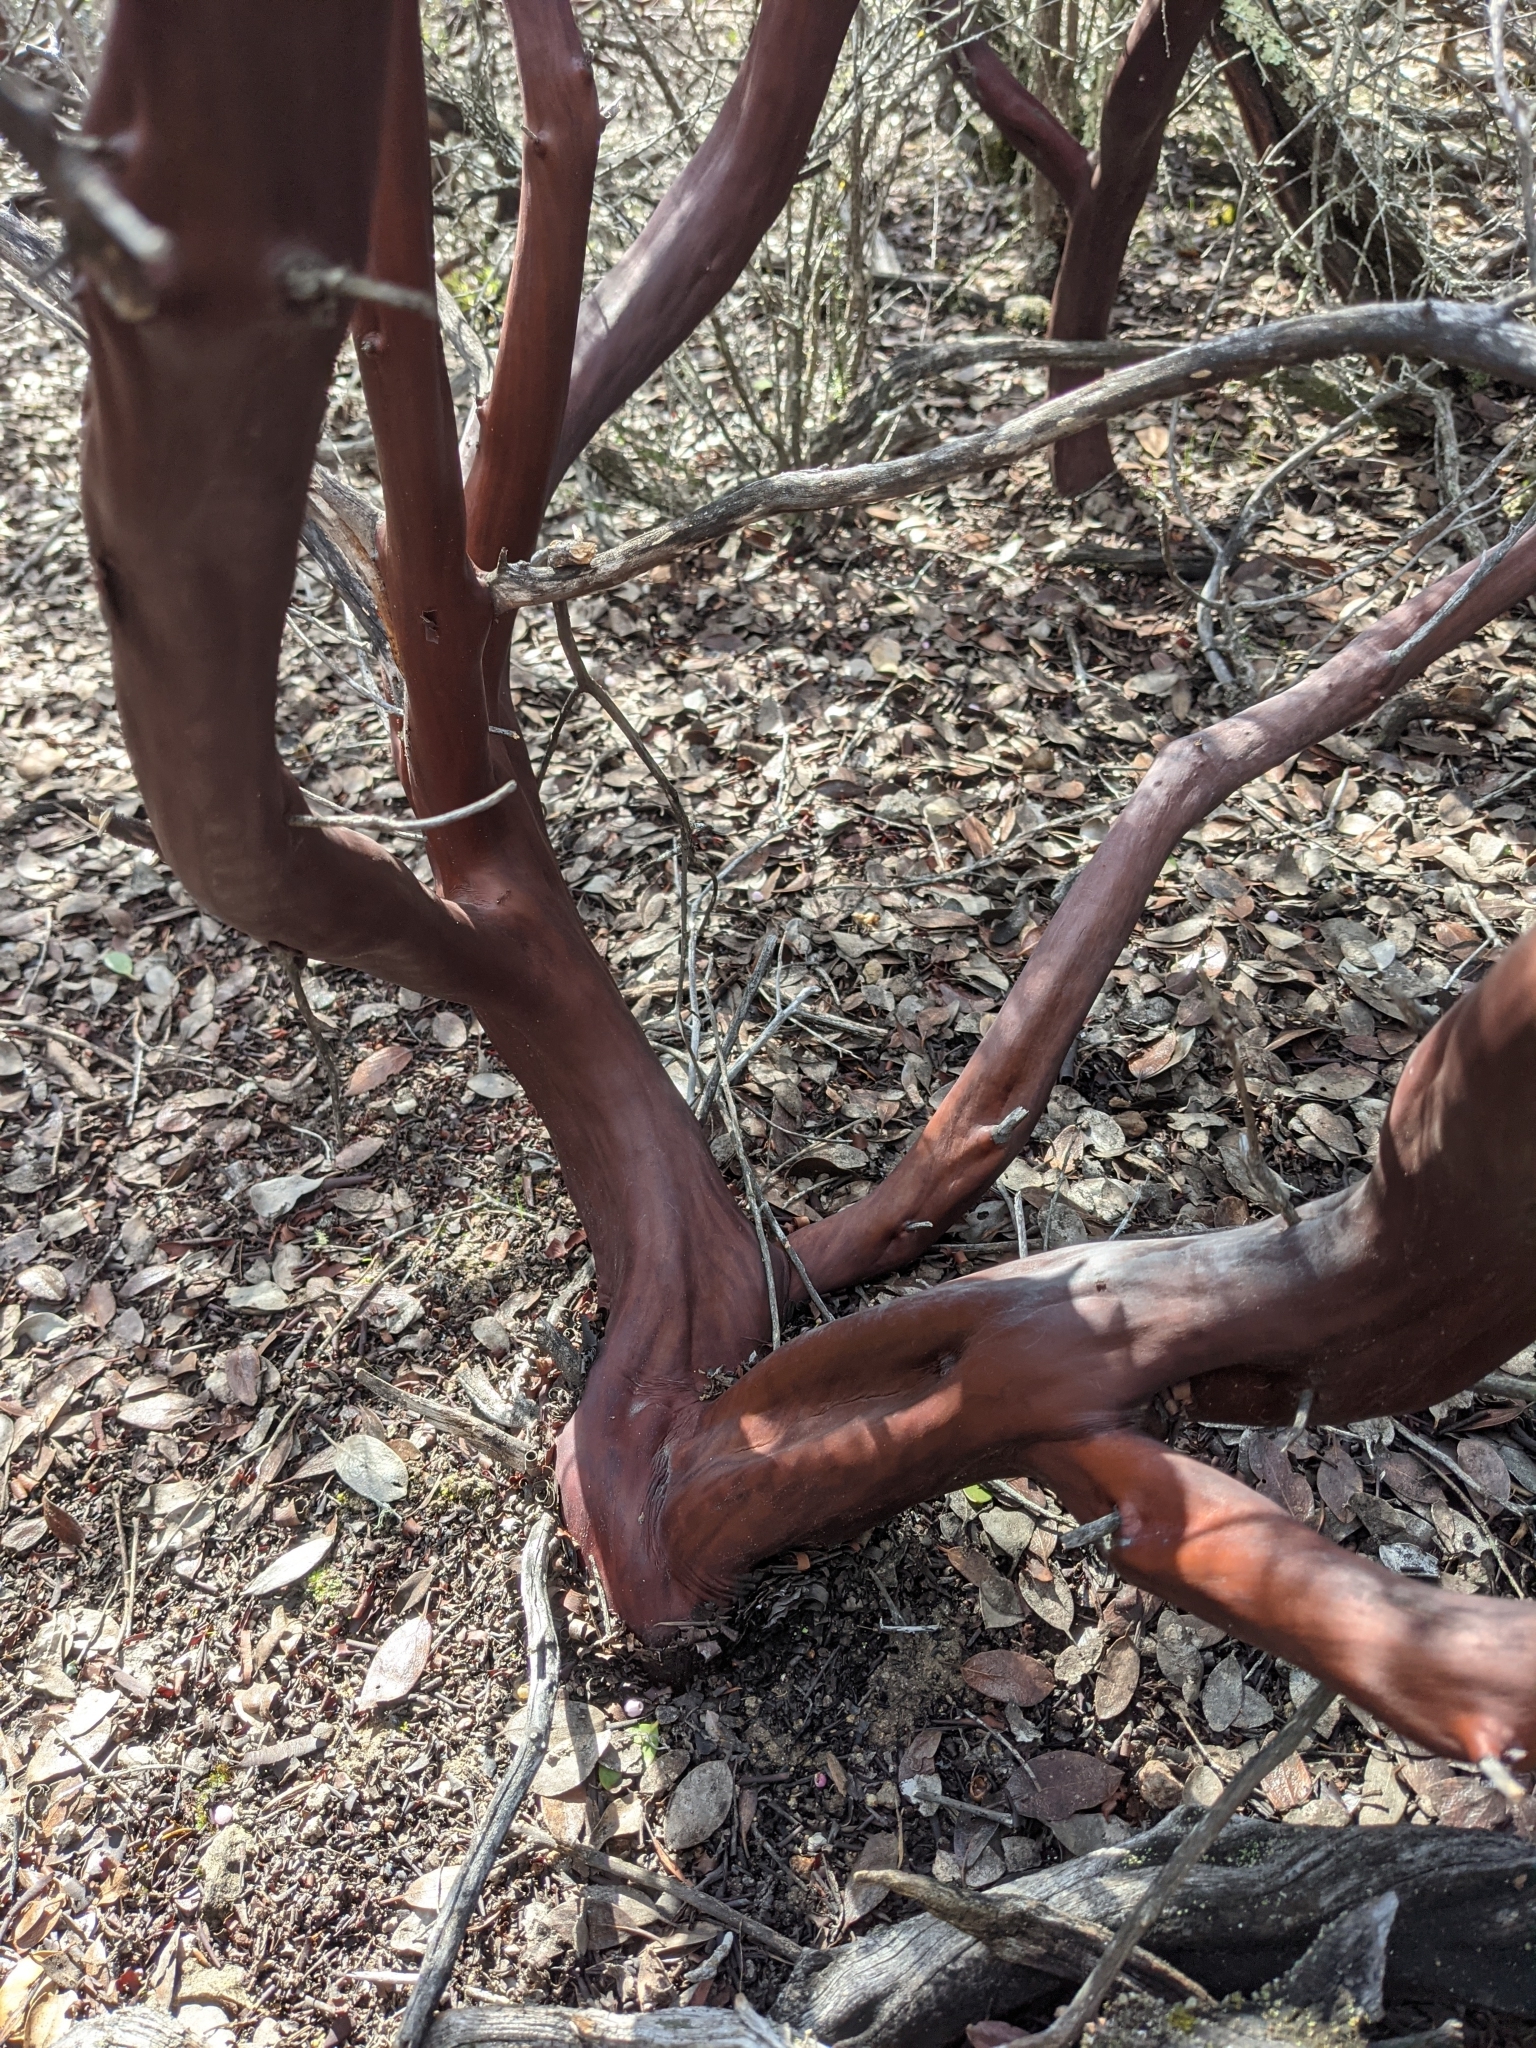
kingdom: Plantae
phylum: Tracheophyta
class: Magnoliopsida
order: Ericales
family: Ericaceae
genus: Arctostaphylos
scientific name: Arctostaphylos stanfordiana
